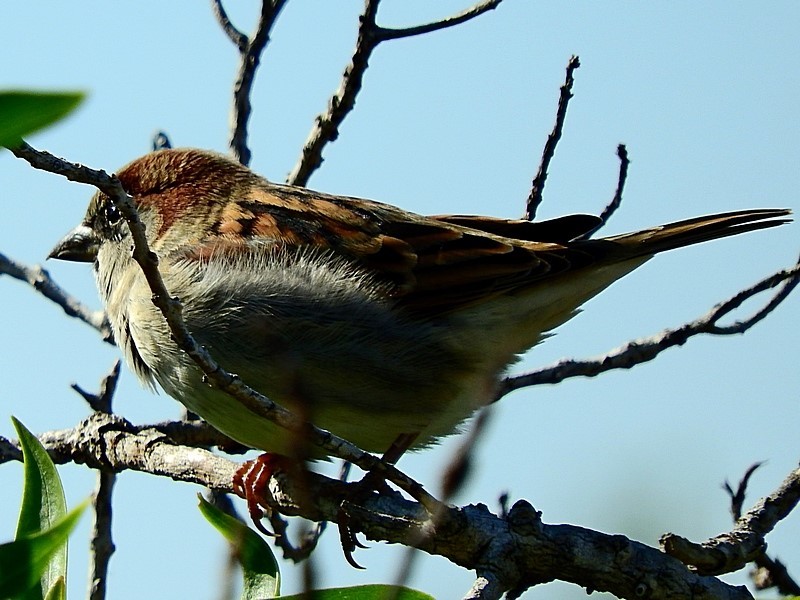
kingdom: Animalia
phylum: Chordata
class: Aves
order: Passeriformes
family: Passeridae
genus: Passer
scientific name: Passer domesticus
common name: House sparrow
